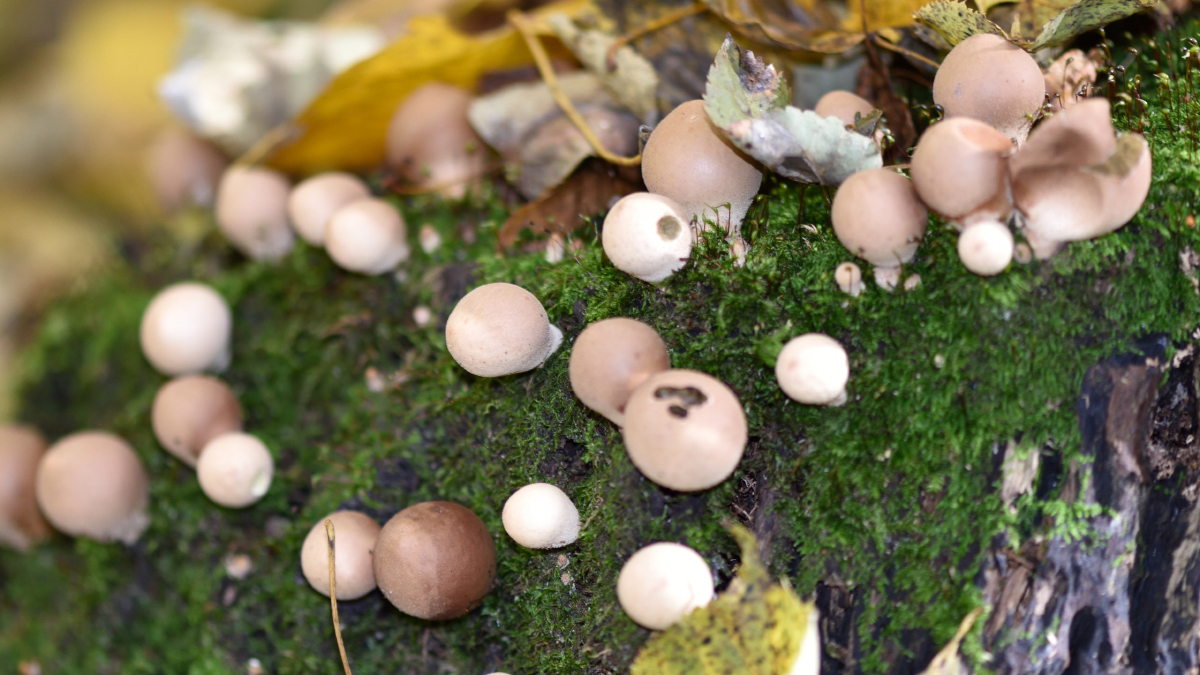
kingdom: Fungi
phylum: Basidiomycota
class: Agaricomycetes
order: Agaricales
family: Lycoperdaceae
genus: Apioperdon
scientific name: Apioperdon pyriforme
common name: Pear-shaped puffball
